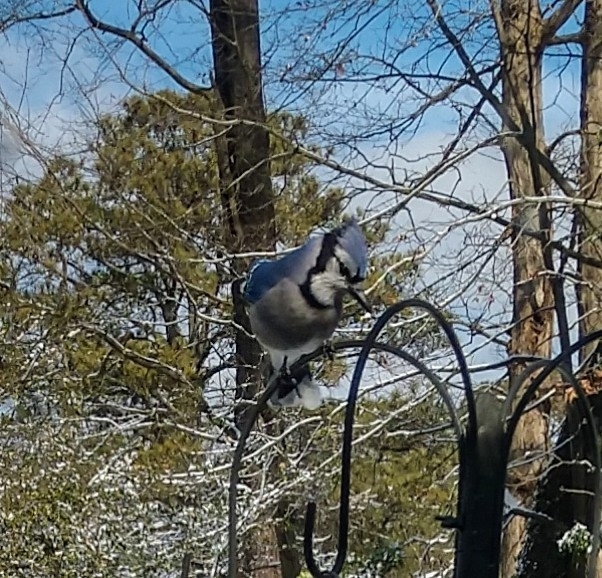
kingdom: Animalia
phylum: Chordata
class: Aves
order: Passeriformes
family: Corvidae
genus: Cyanocitta
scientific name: Cyanocitta cristata
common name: Blue jay
